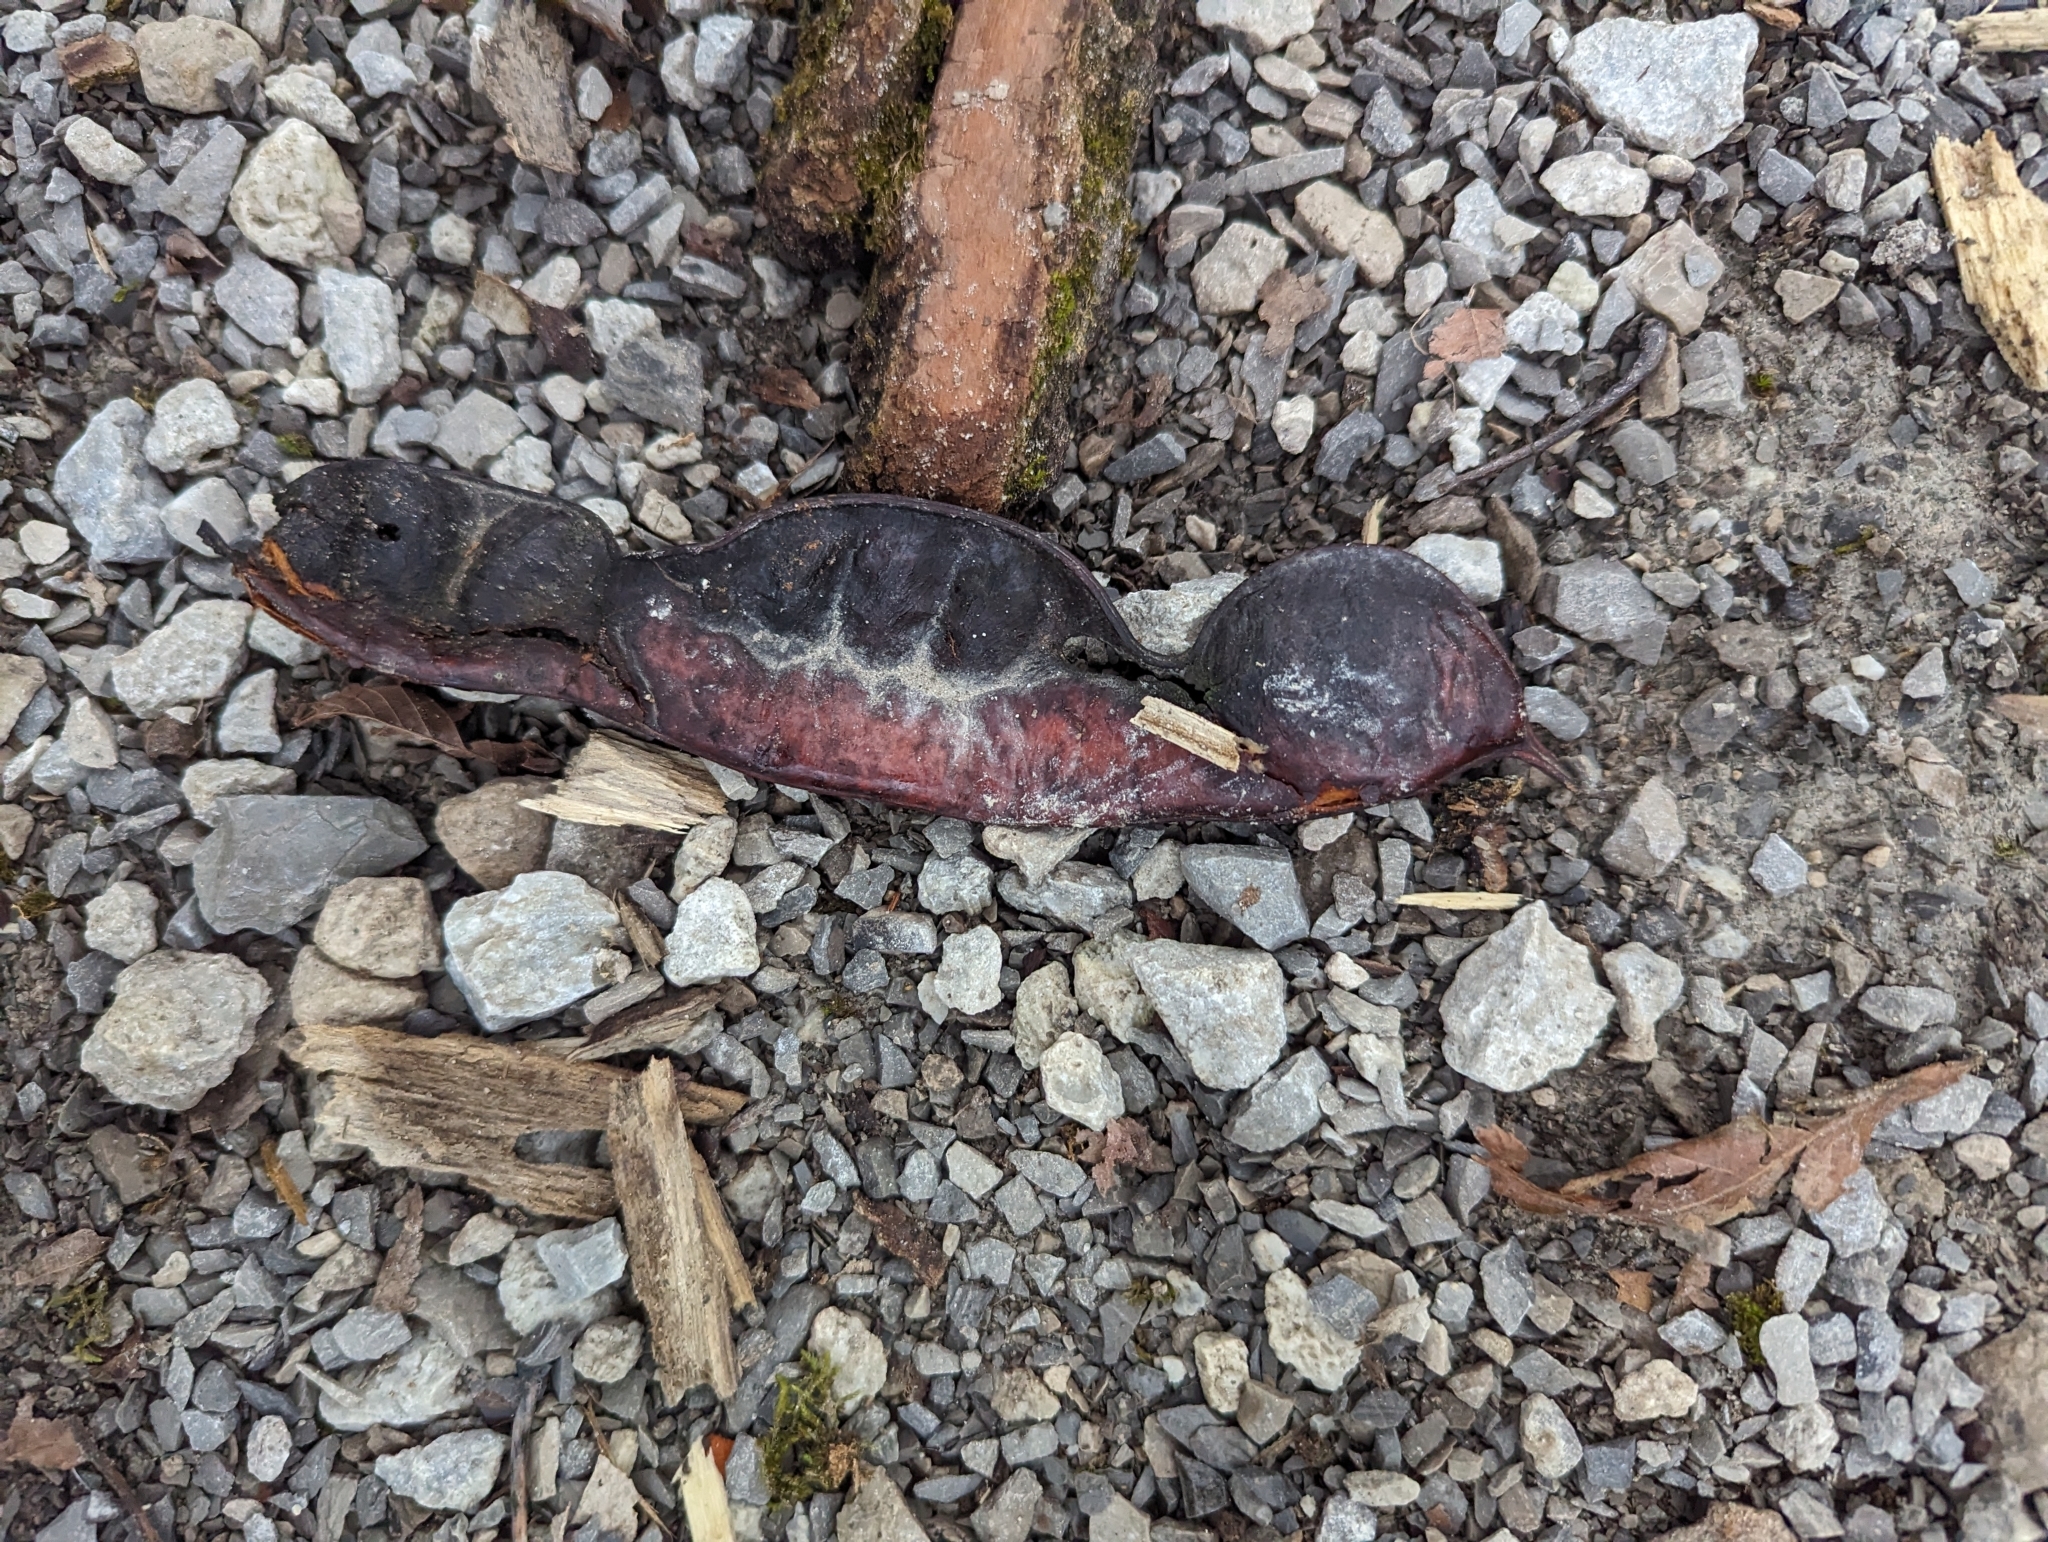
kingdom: Plantae
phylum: Tracheophyta
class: Magnoliopsida
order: Fabales
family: Fabaceae
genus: Gleditsia
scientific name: Gleditsia triacanthos
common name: Common honeylocust
